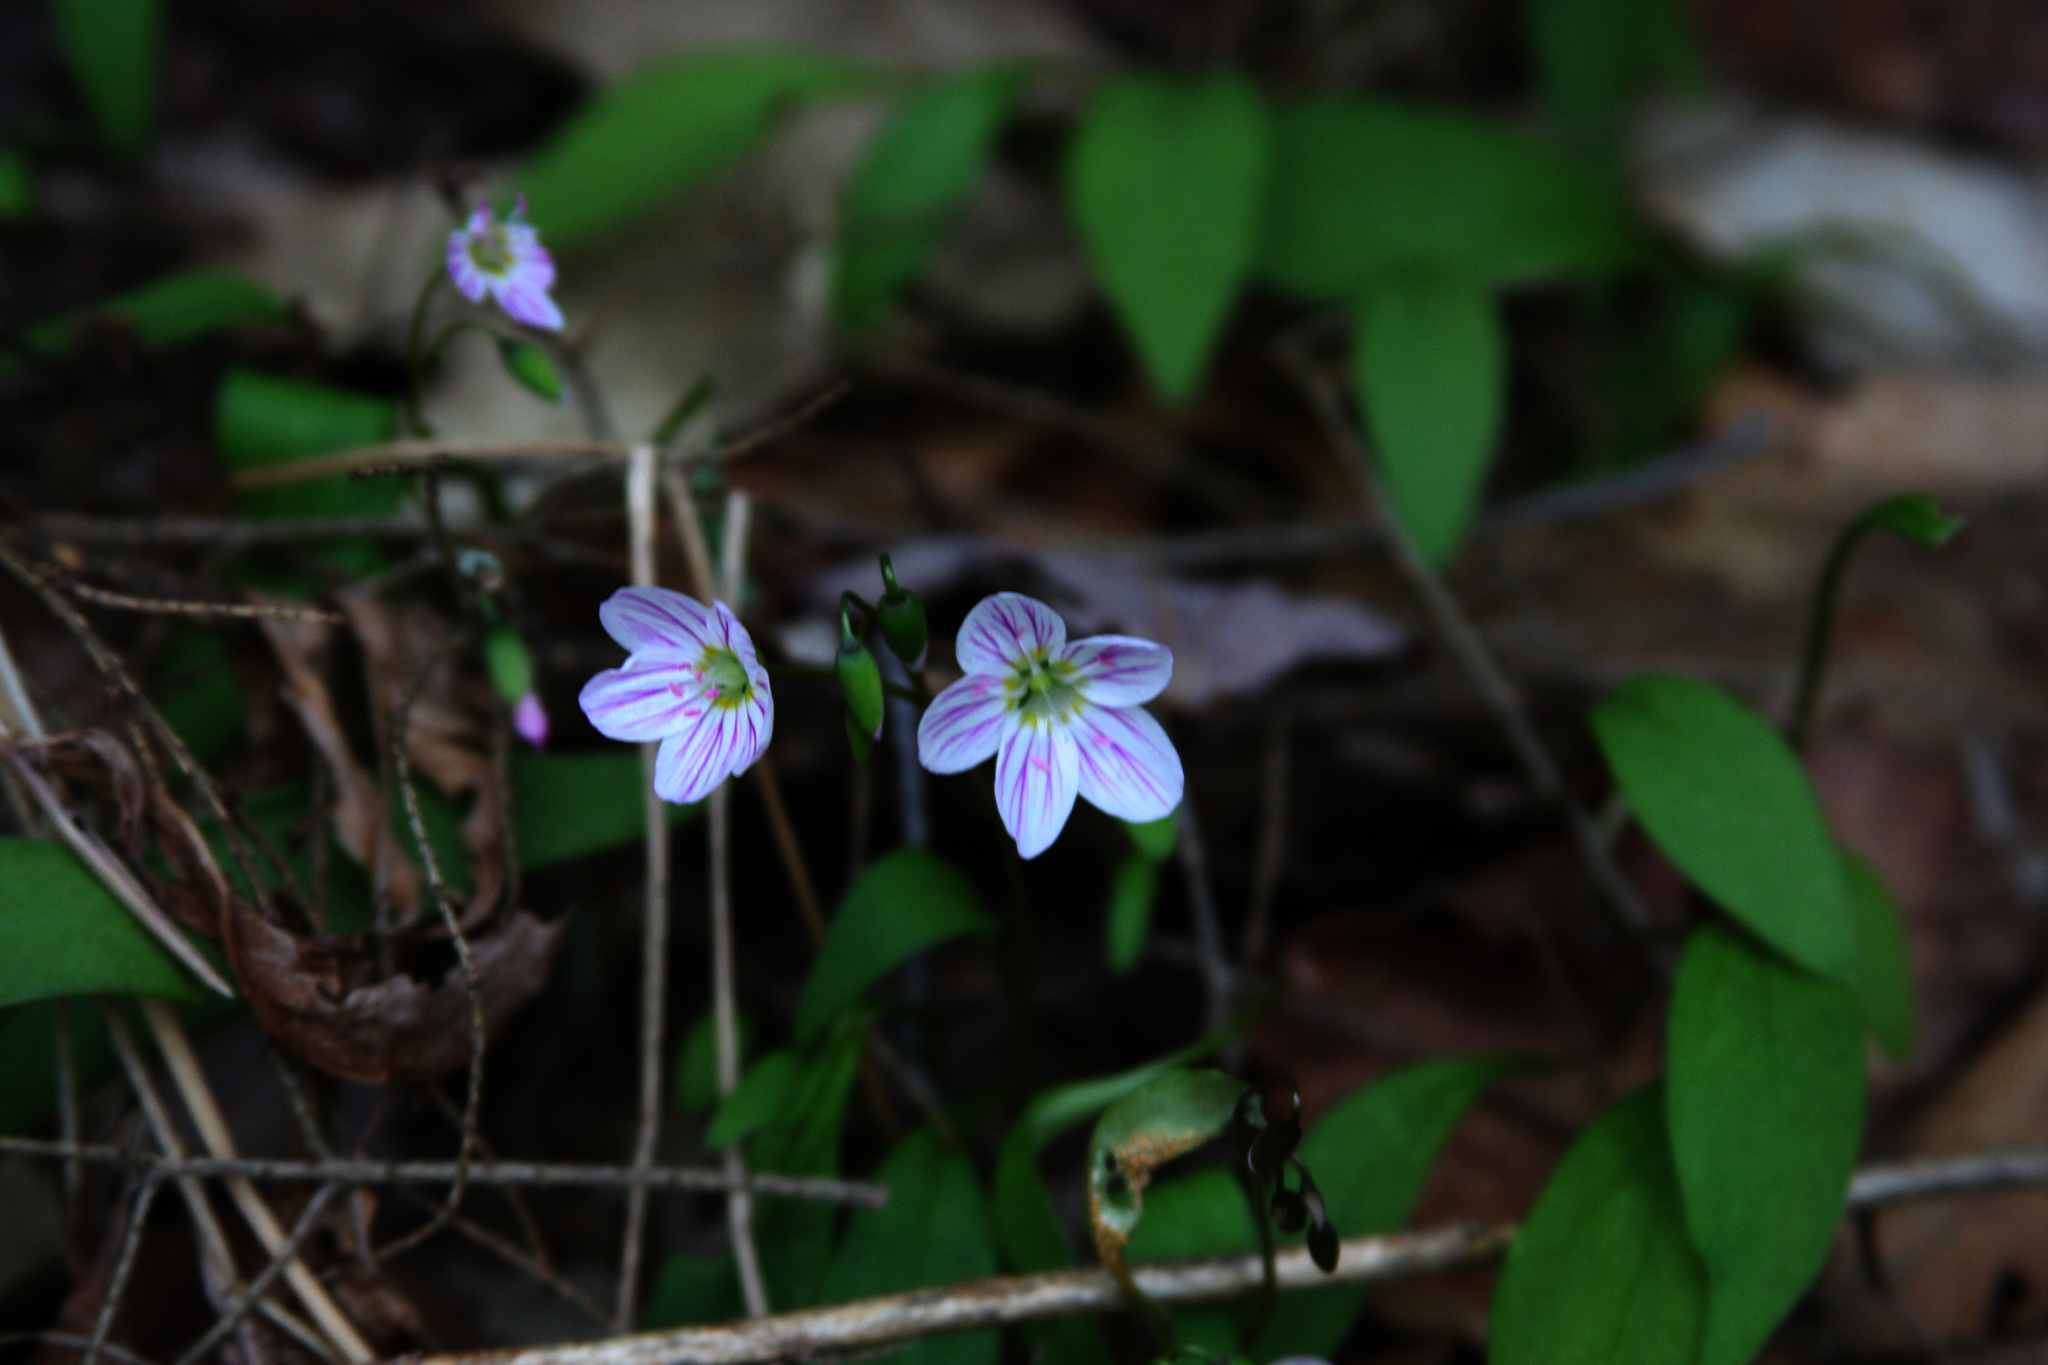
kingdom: Plantae
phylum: Tracheophyta
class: Magnoliopsida
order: Caryophyllales
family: Montiaceae
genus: Claytonia
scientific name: Claytonia caroliniana
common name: Carolina spring beauty
